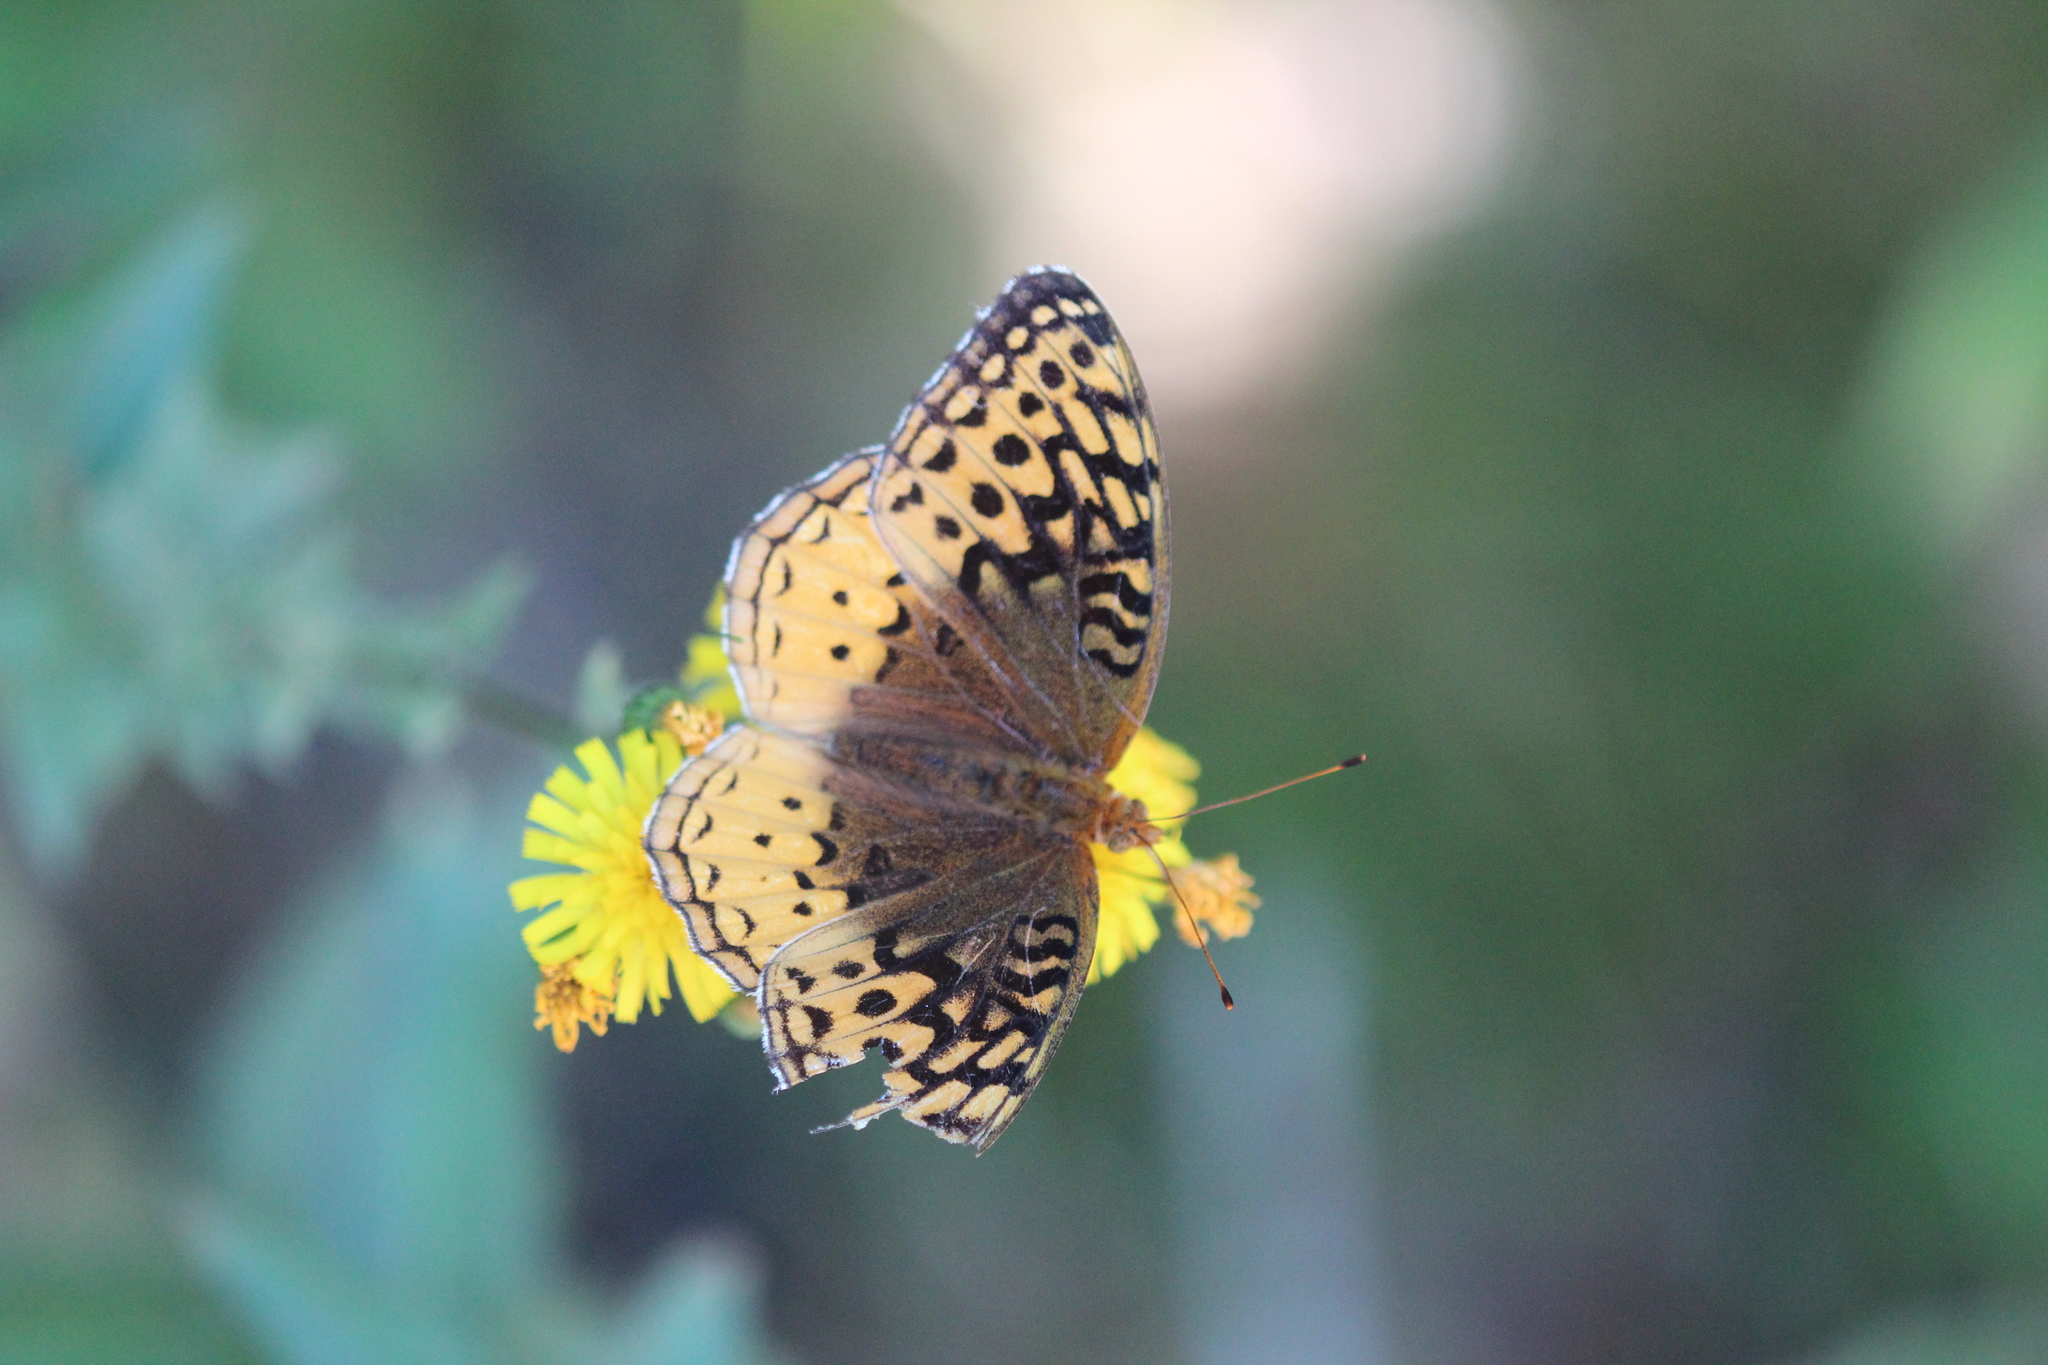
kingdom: Animalia
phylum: Arthropoda
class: Insecta
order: Lepidoptera
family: Nymphalidae
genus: Speyeria
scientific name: Speyeria cybele
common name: Great spangled fritillary
